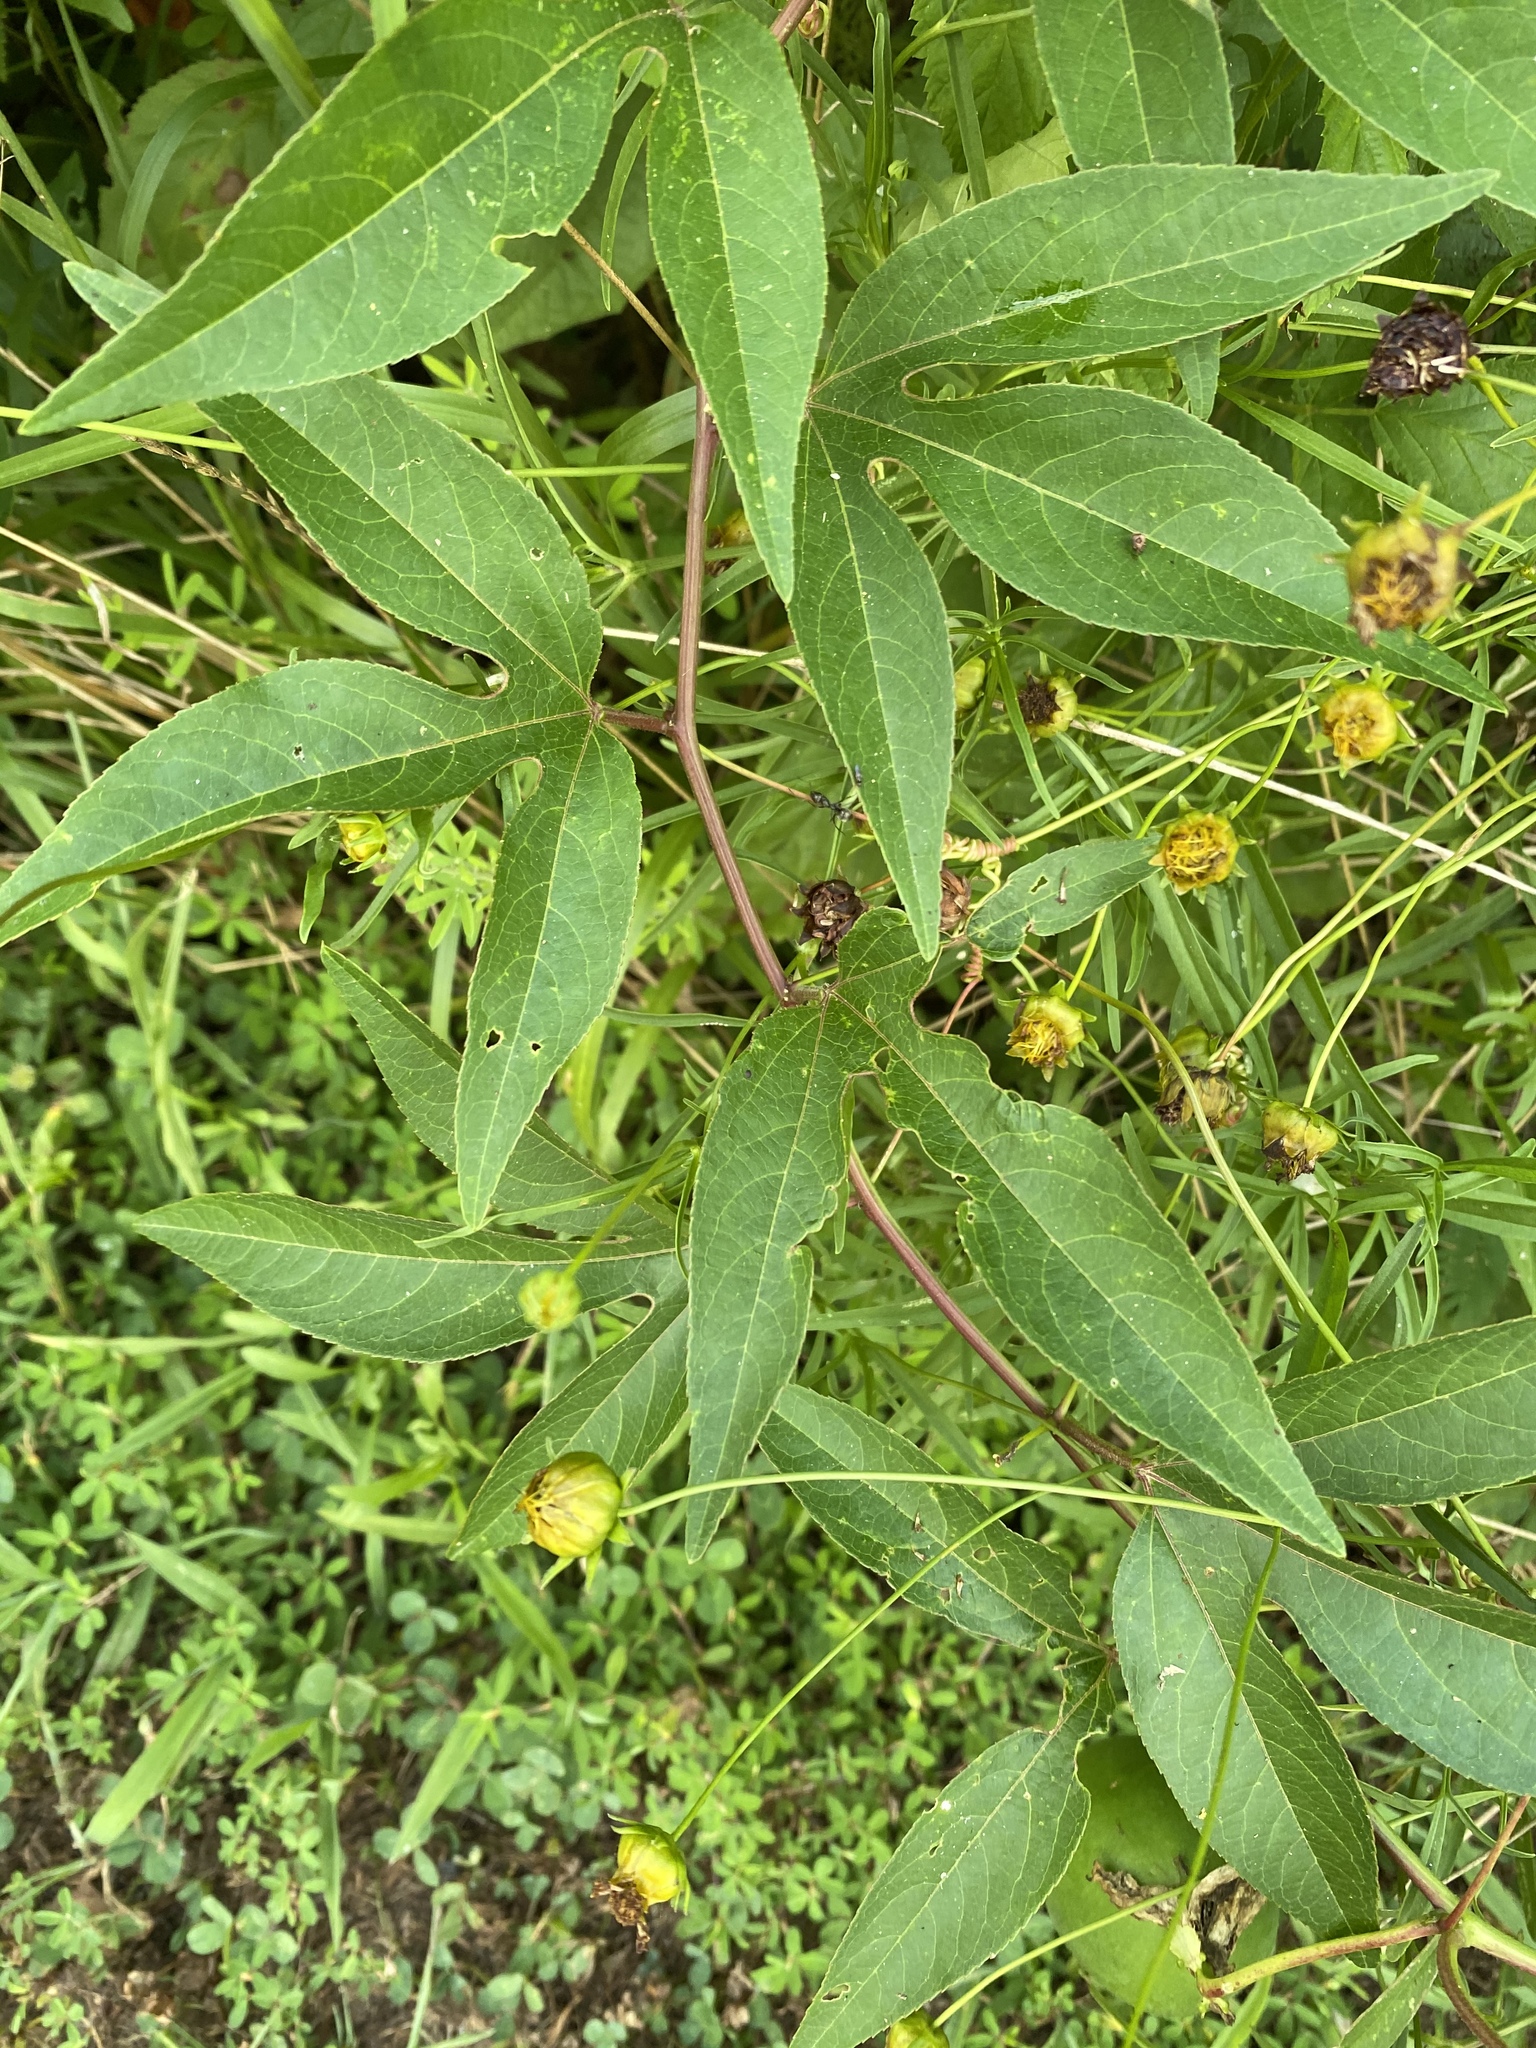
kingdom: Plantae
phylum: Tracheophyta
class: Magnoliopsida
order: Malpighiales
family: Passifloraceae
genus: Passiflora
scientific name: Passiflora incarnata
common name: Apricot-vine
